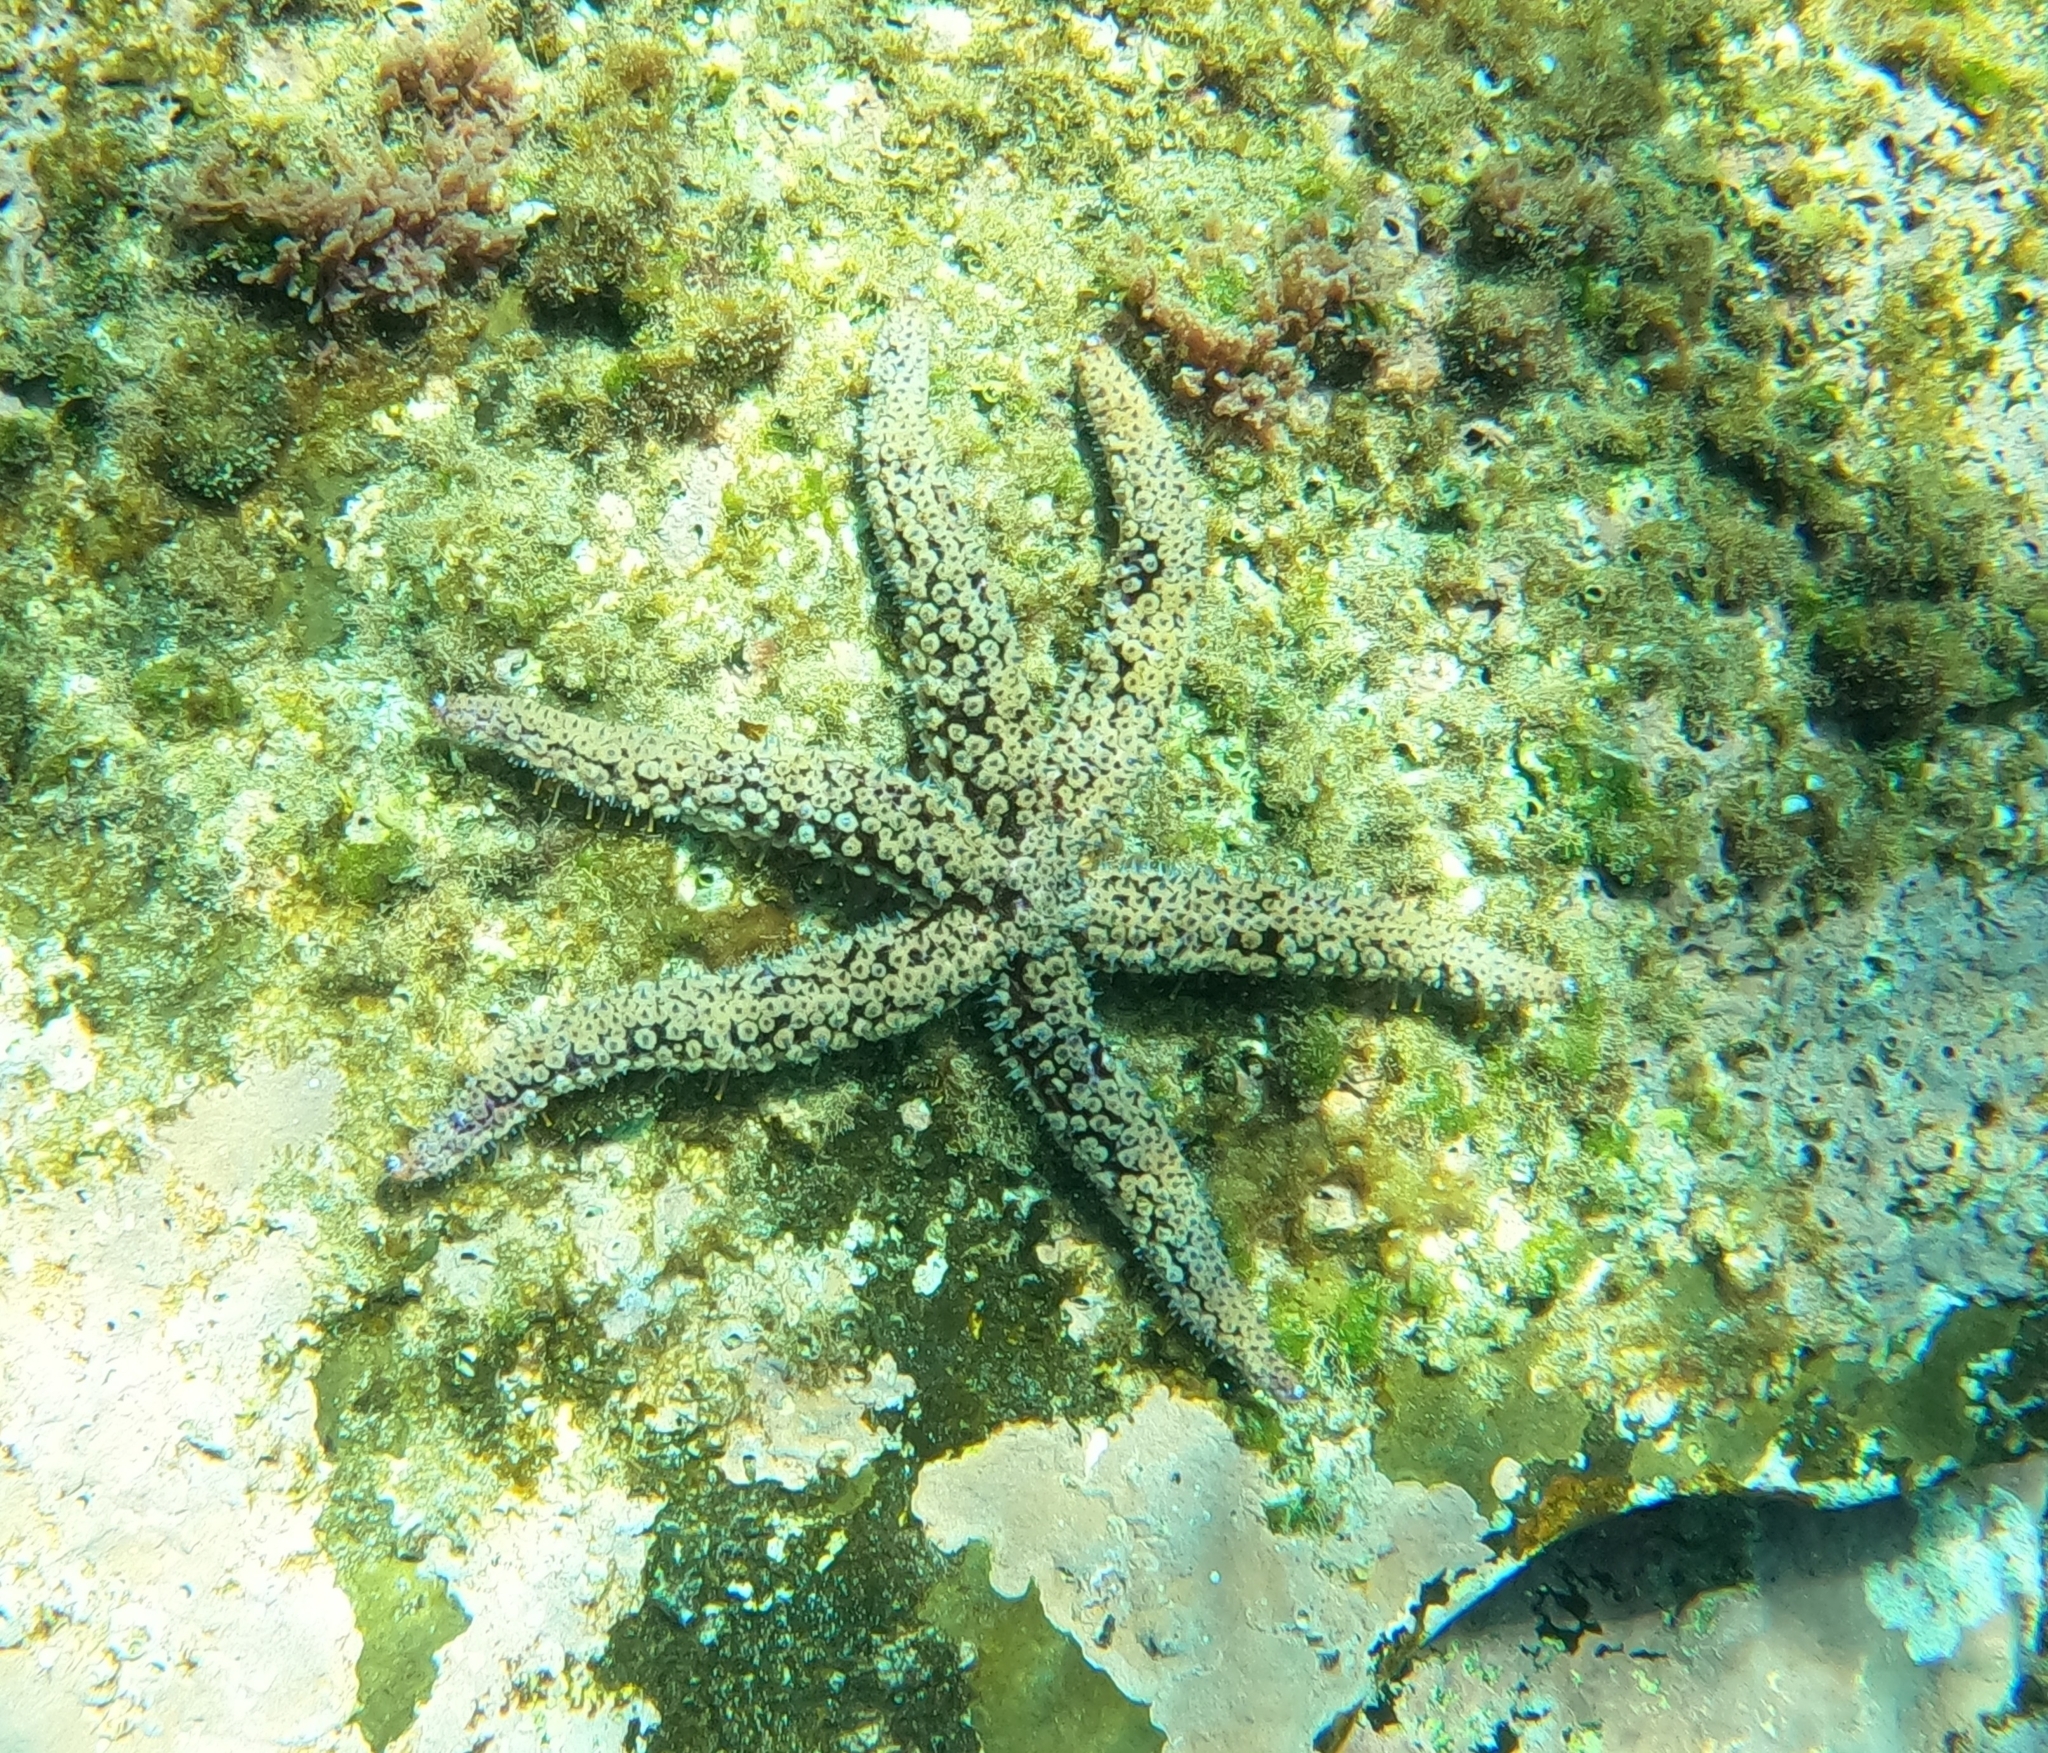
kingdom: Animalia
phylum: Echinodermata
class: Asteroidea
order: Forcipulatida
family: Asteriidae
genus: Coscinasterias
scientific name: Coscinasterias tenuispina
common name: Blue spiny starfish
